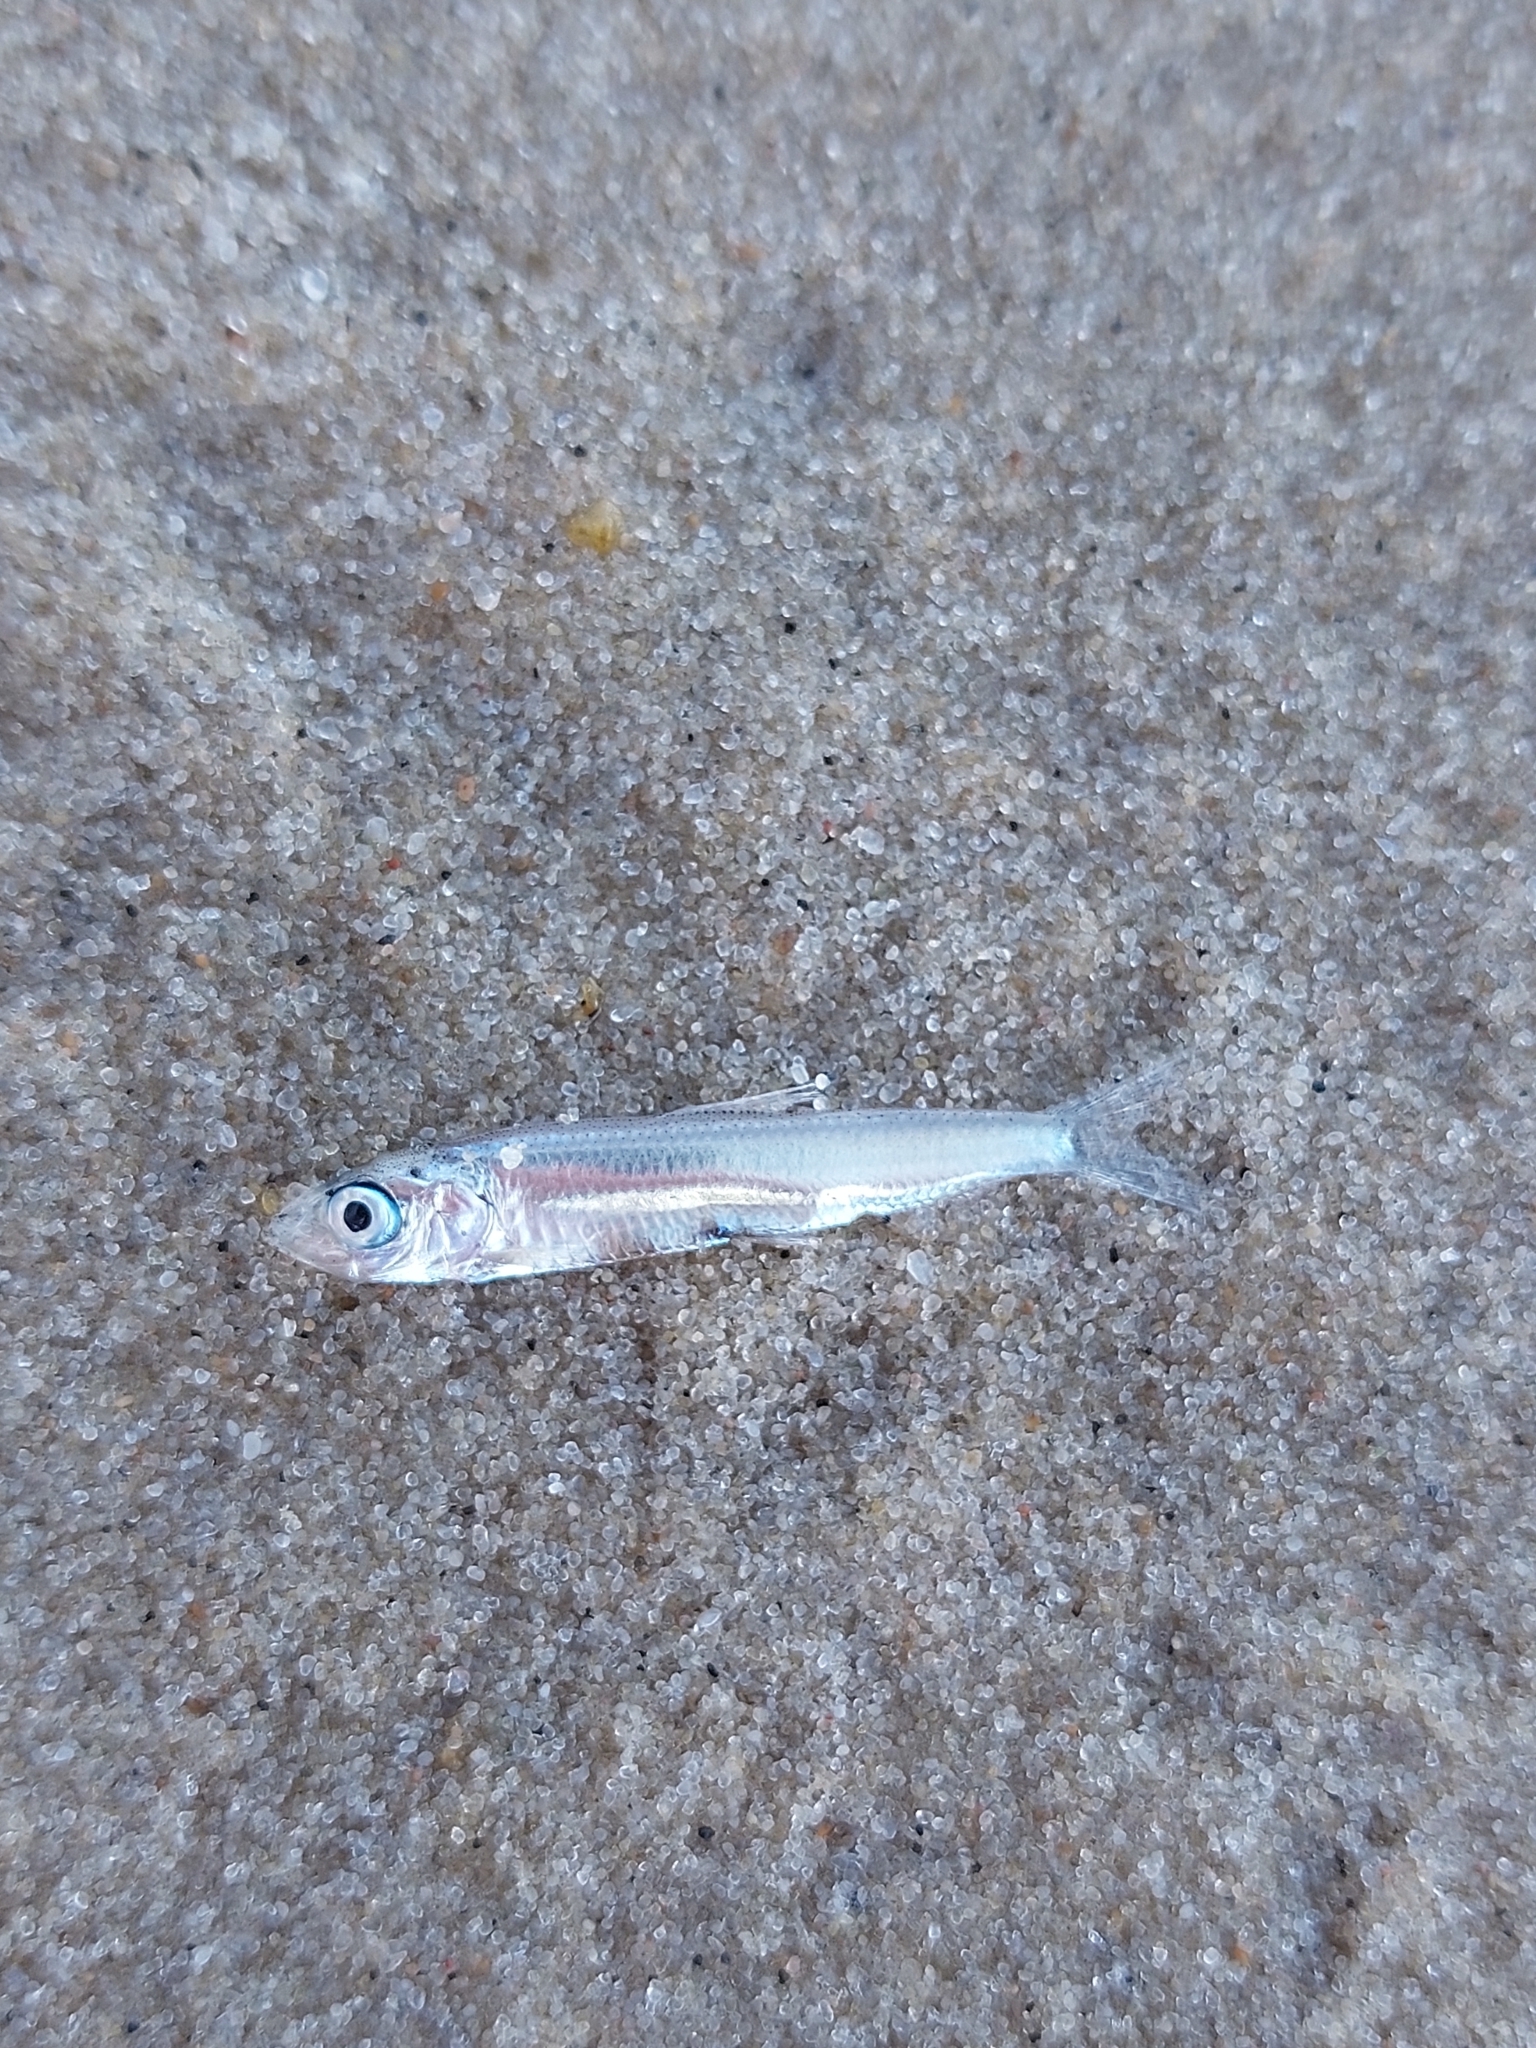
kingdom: Animalia
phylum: Chordata
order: Clupeiformes
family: Clupeidae
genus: Clupeonella
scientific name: Clupeonella cultriventris
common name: Azov sea sprat
